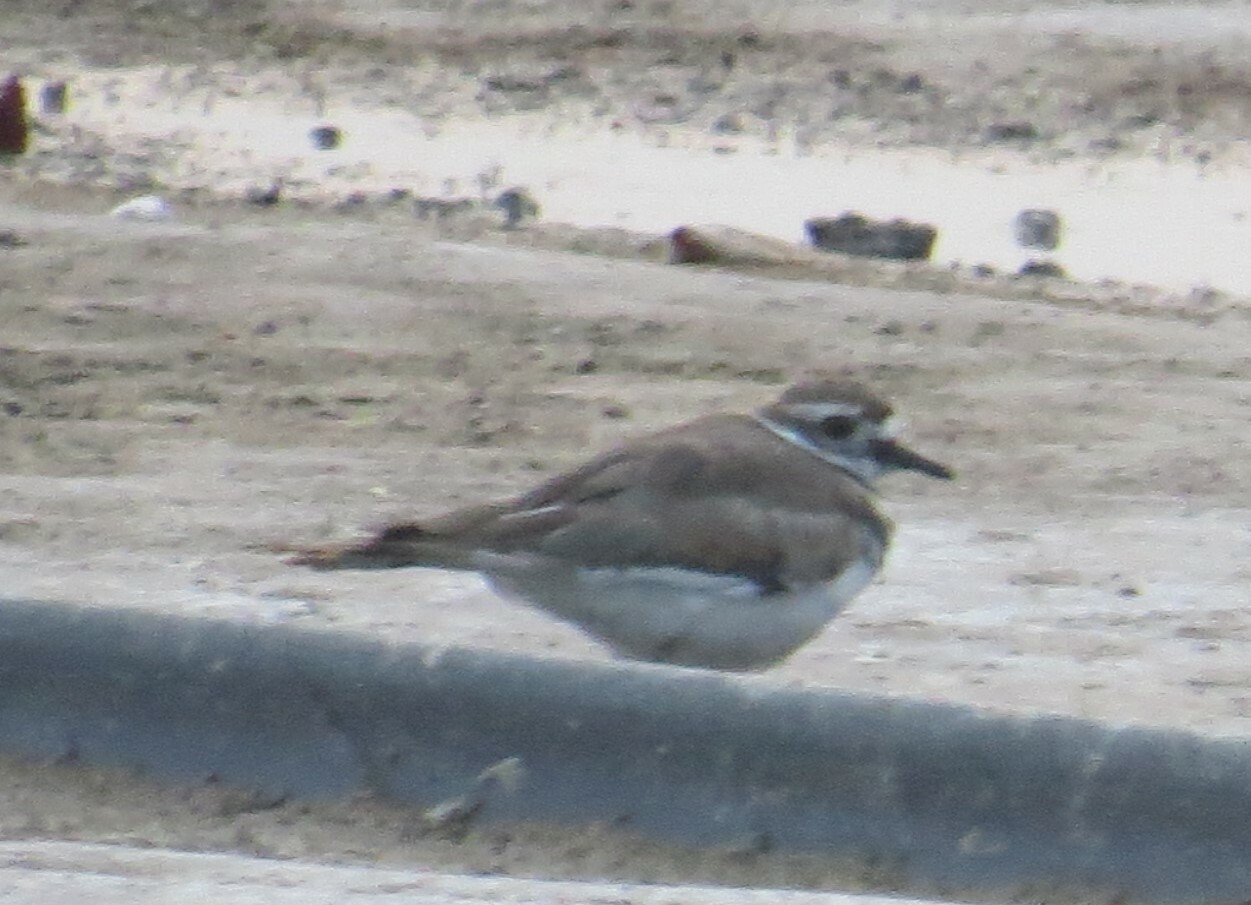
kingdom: Animalia
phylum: Chordata
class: Aves
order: Charadriiformes
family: Charadriidae
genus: Charadrius
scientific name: Charadrius vociferus
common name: Killdeer
